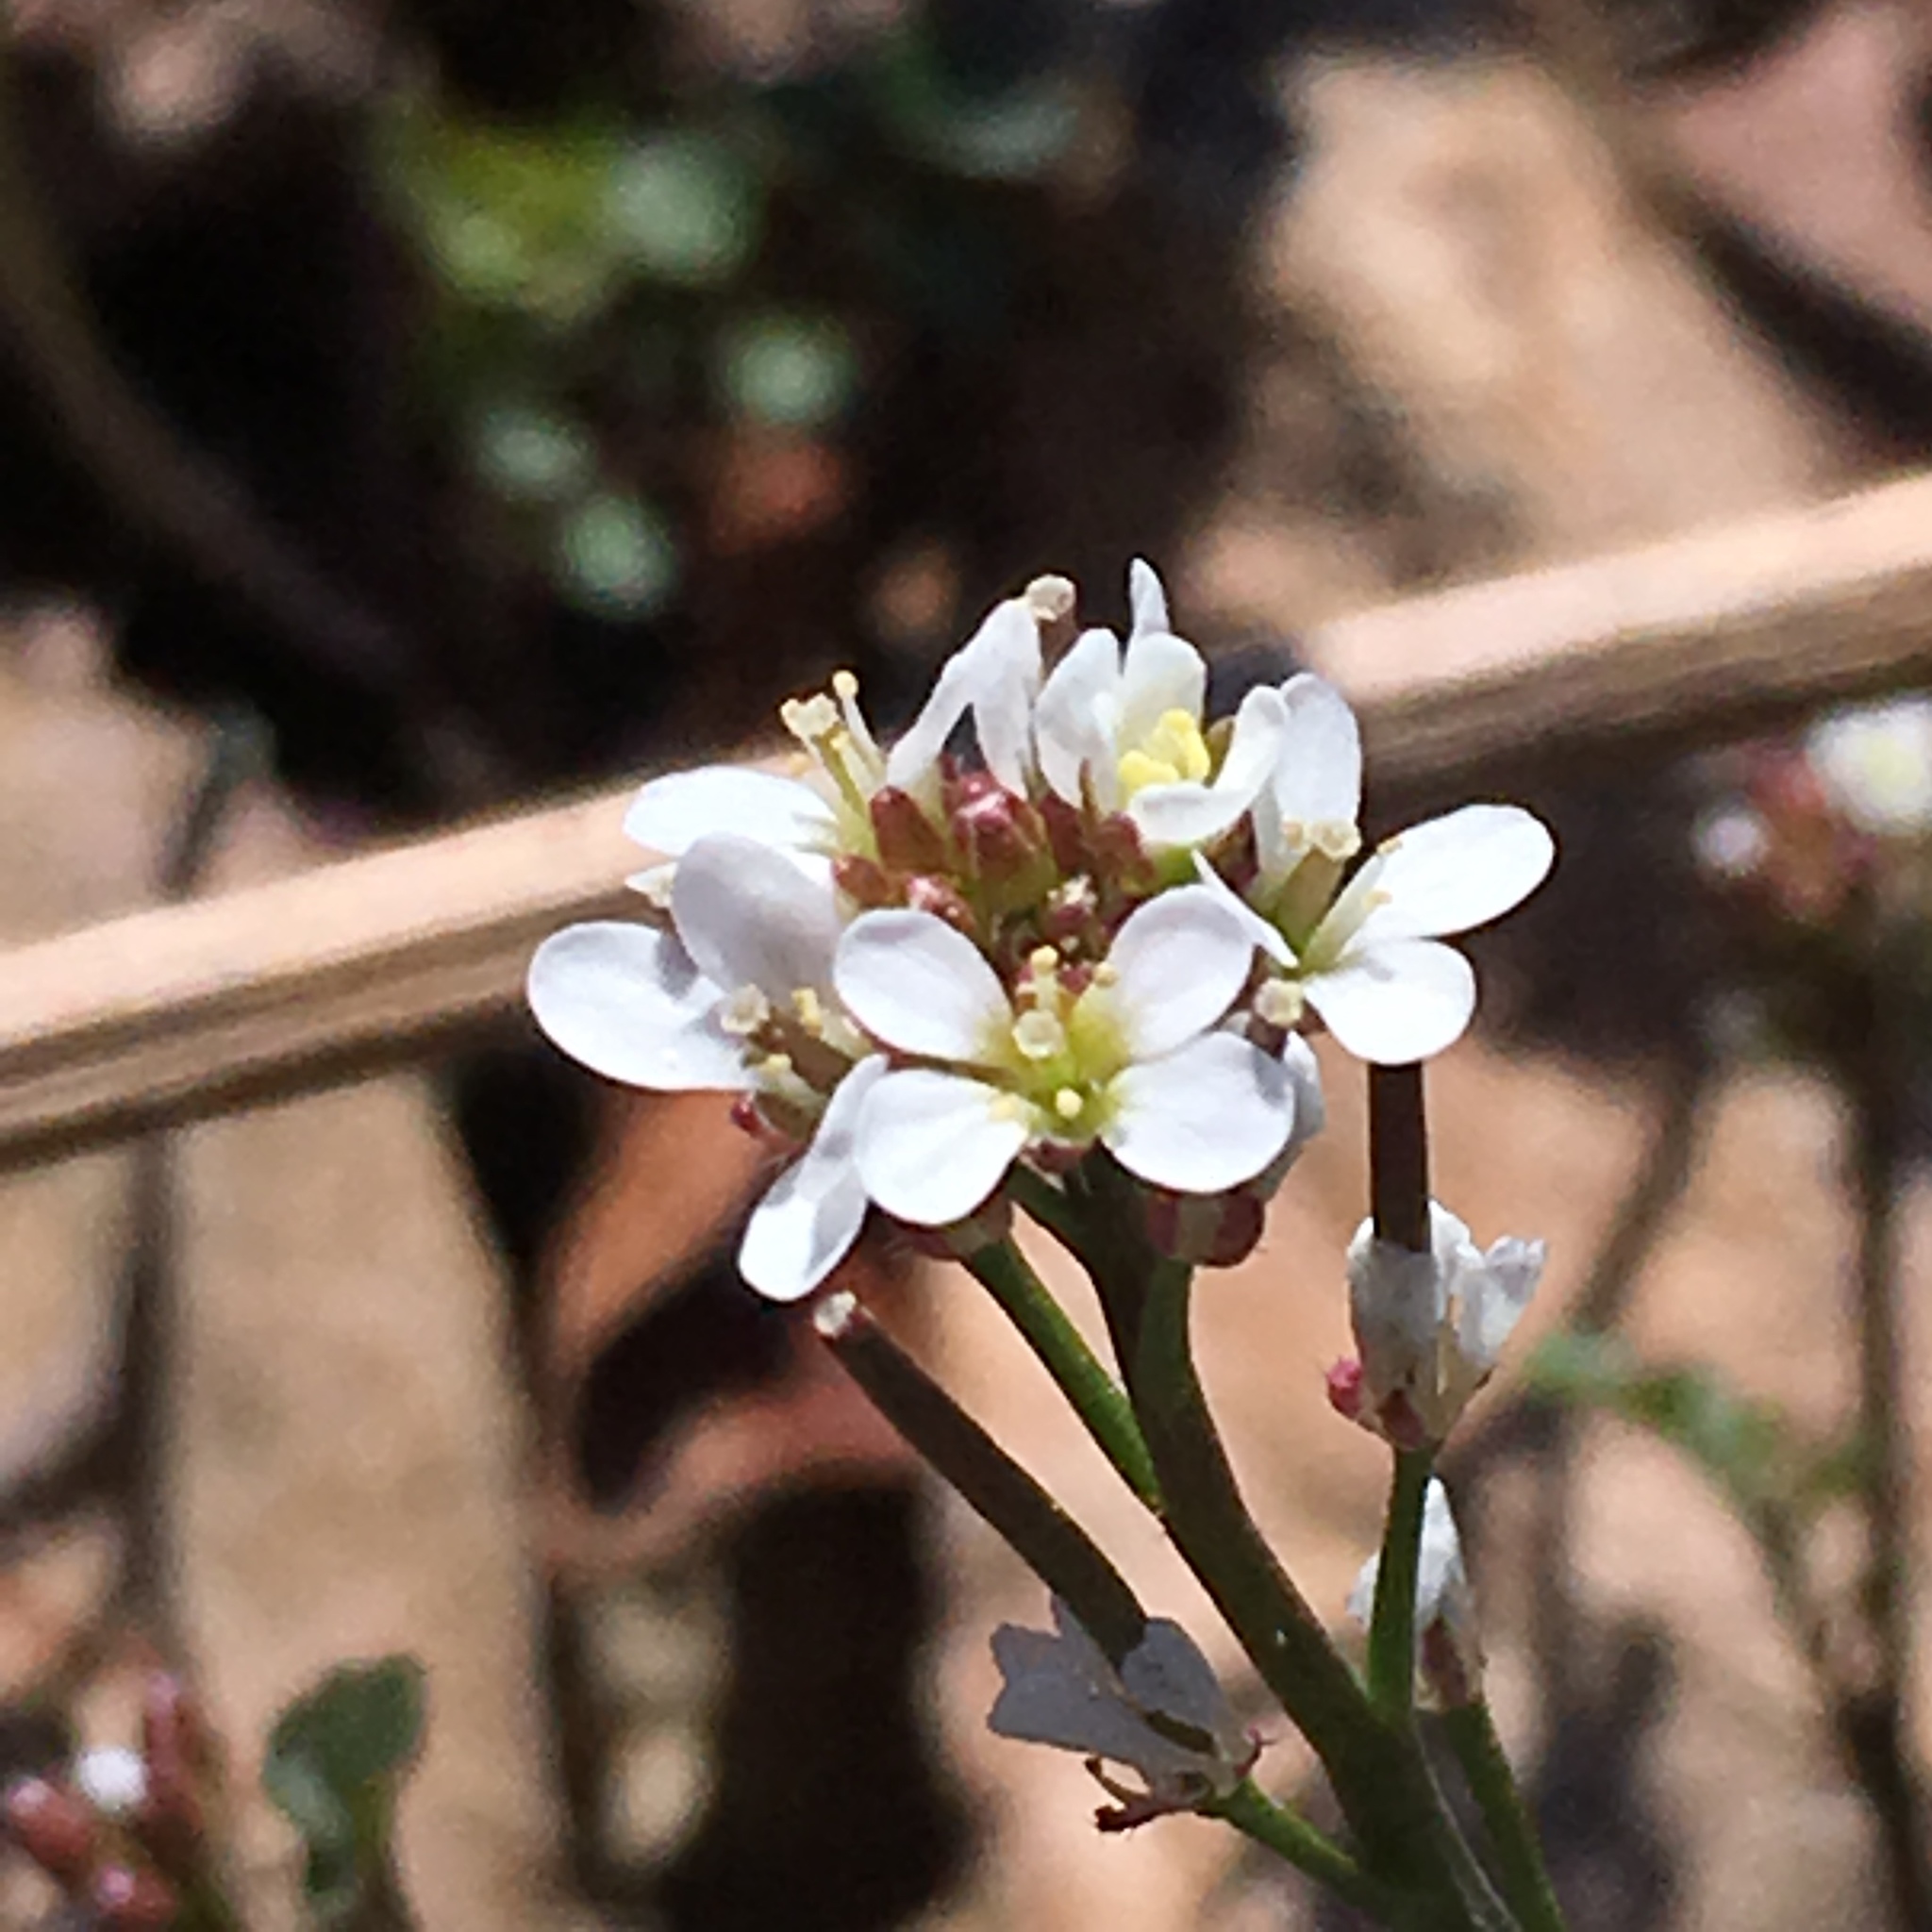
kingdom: Plantae
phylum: Tracheophyta
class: Magnoliopsida
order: Brassicales
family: Brassicaceae
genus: Cardamine
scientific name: Cardamine hirsuta
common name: Hairy bittercress
